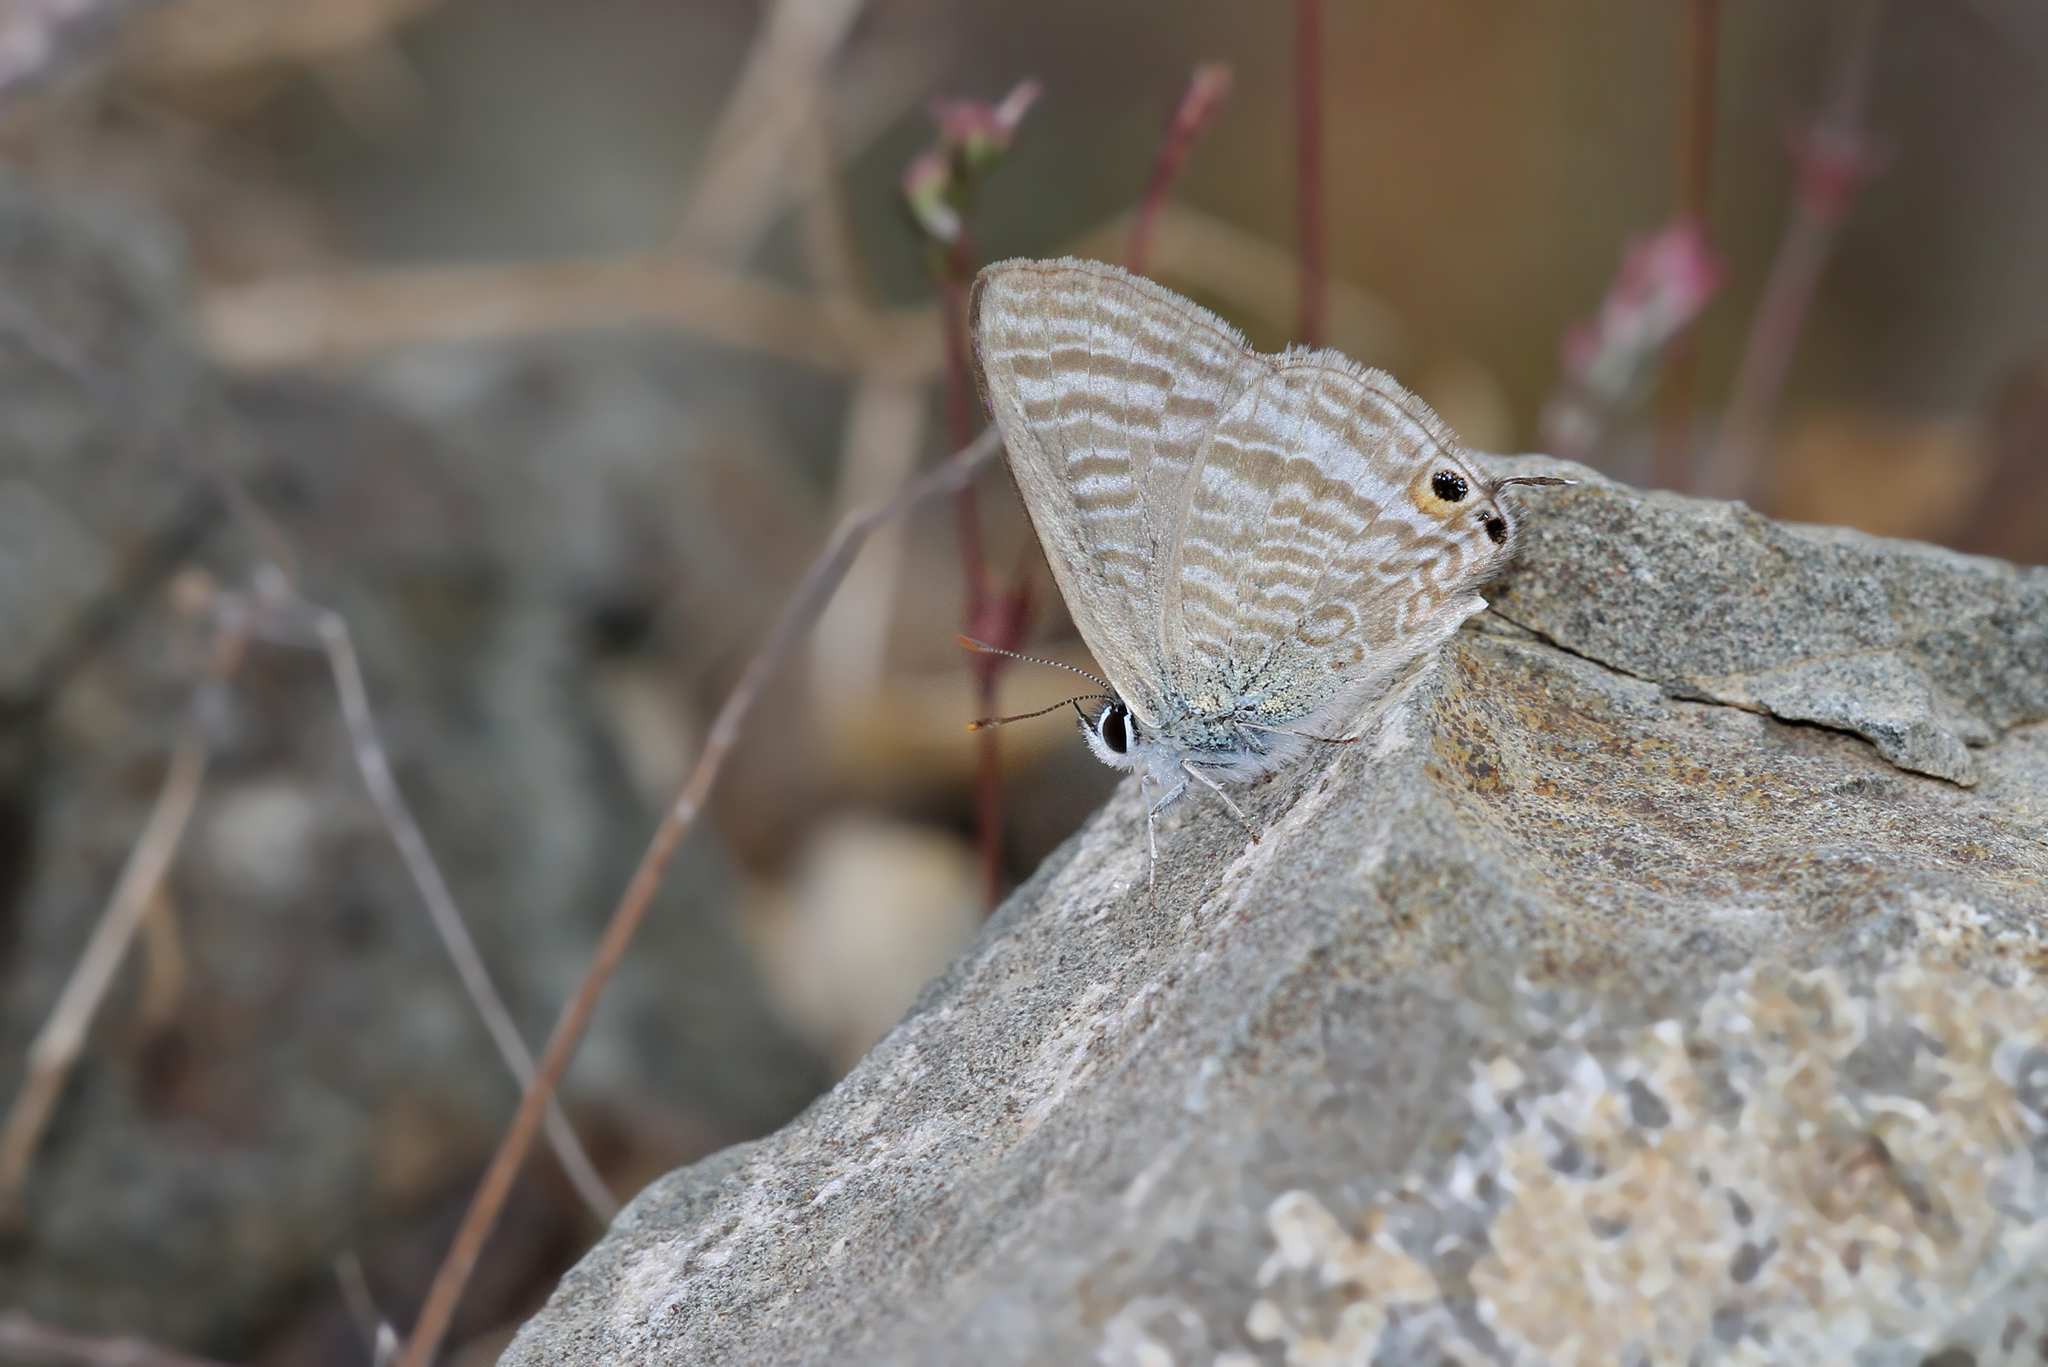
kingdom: Animalia
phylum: Arthropoda
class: Insecta
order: Lepidoptera
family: Lycaenidae
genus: Lampides
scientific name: Lampides boeticus
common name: Long-tailed blue
